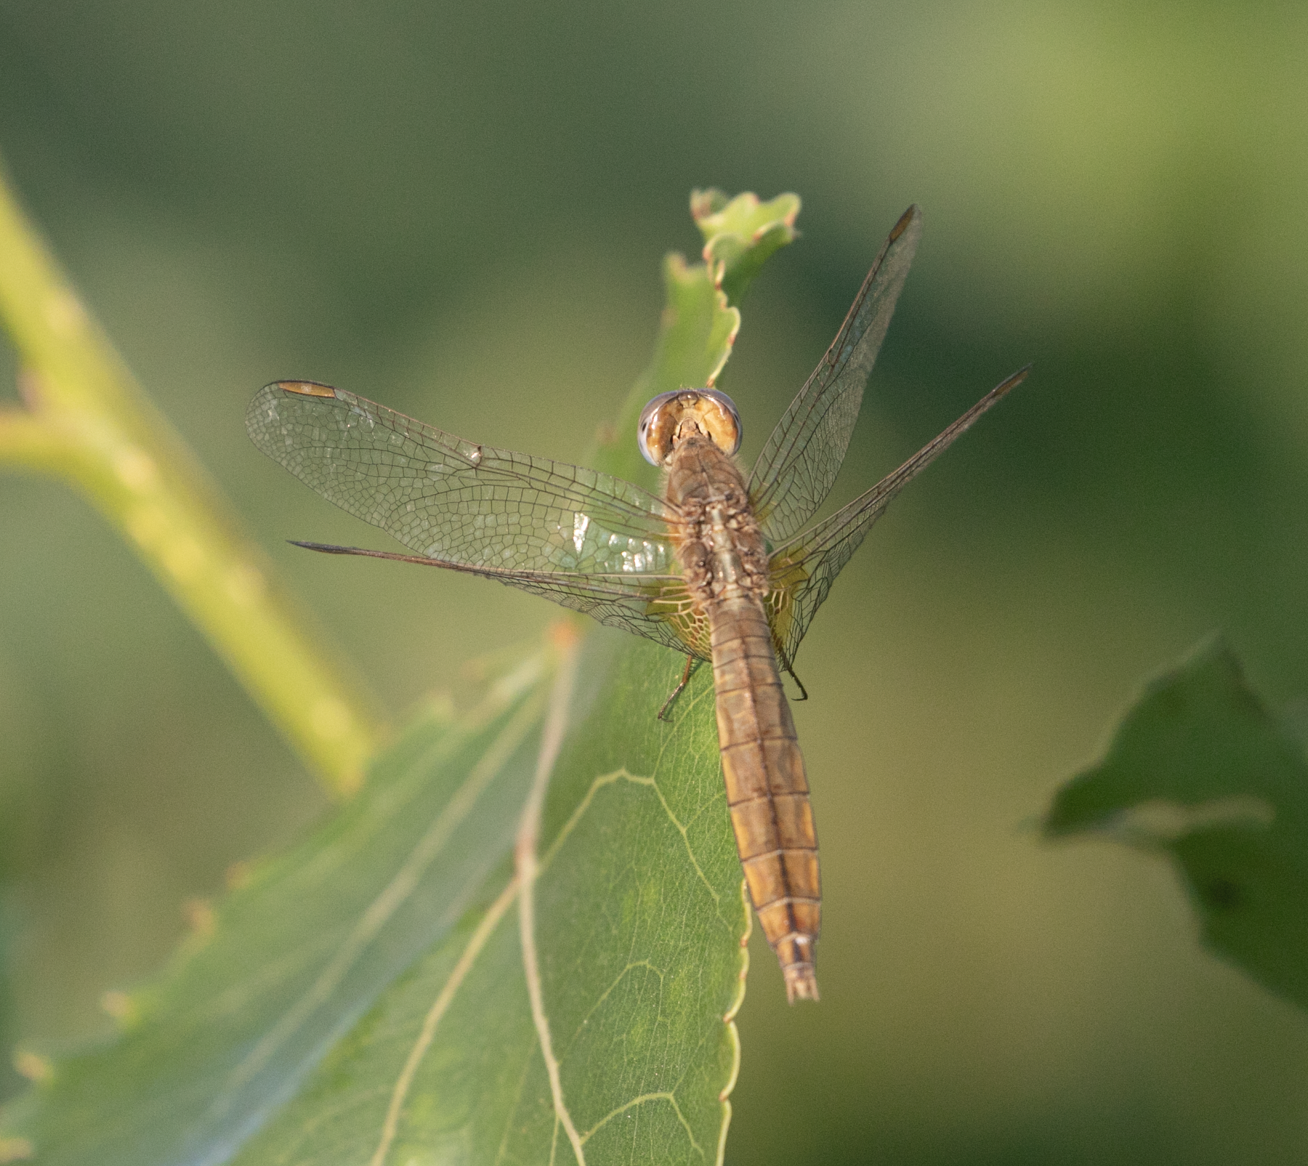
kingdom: Animalia
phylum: Arthropoda
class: Insecta
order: Odonata
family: Libellulidae
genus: Crocothemis
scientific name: Crocothemis erythraea
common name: Scarlet dragonfly
